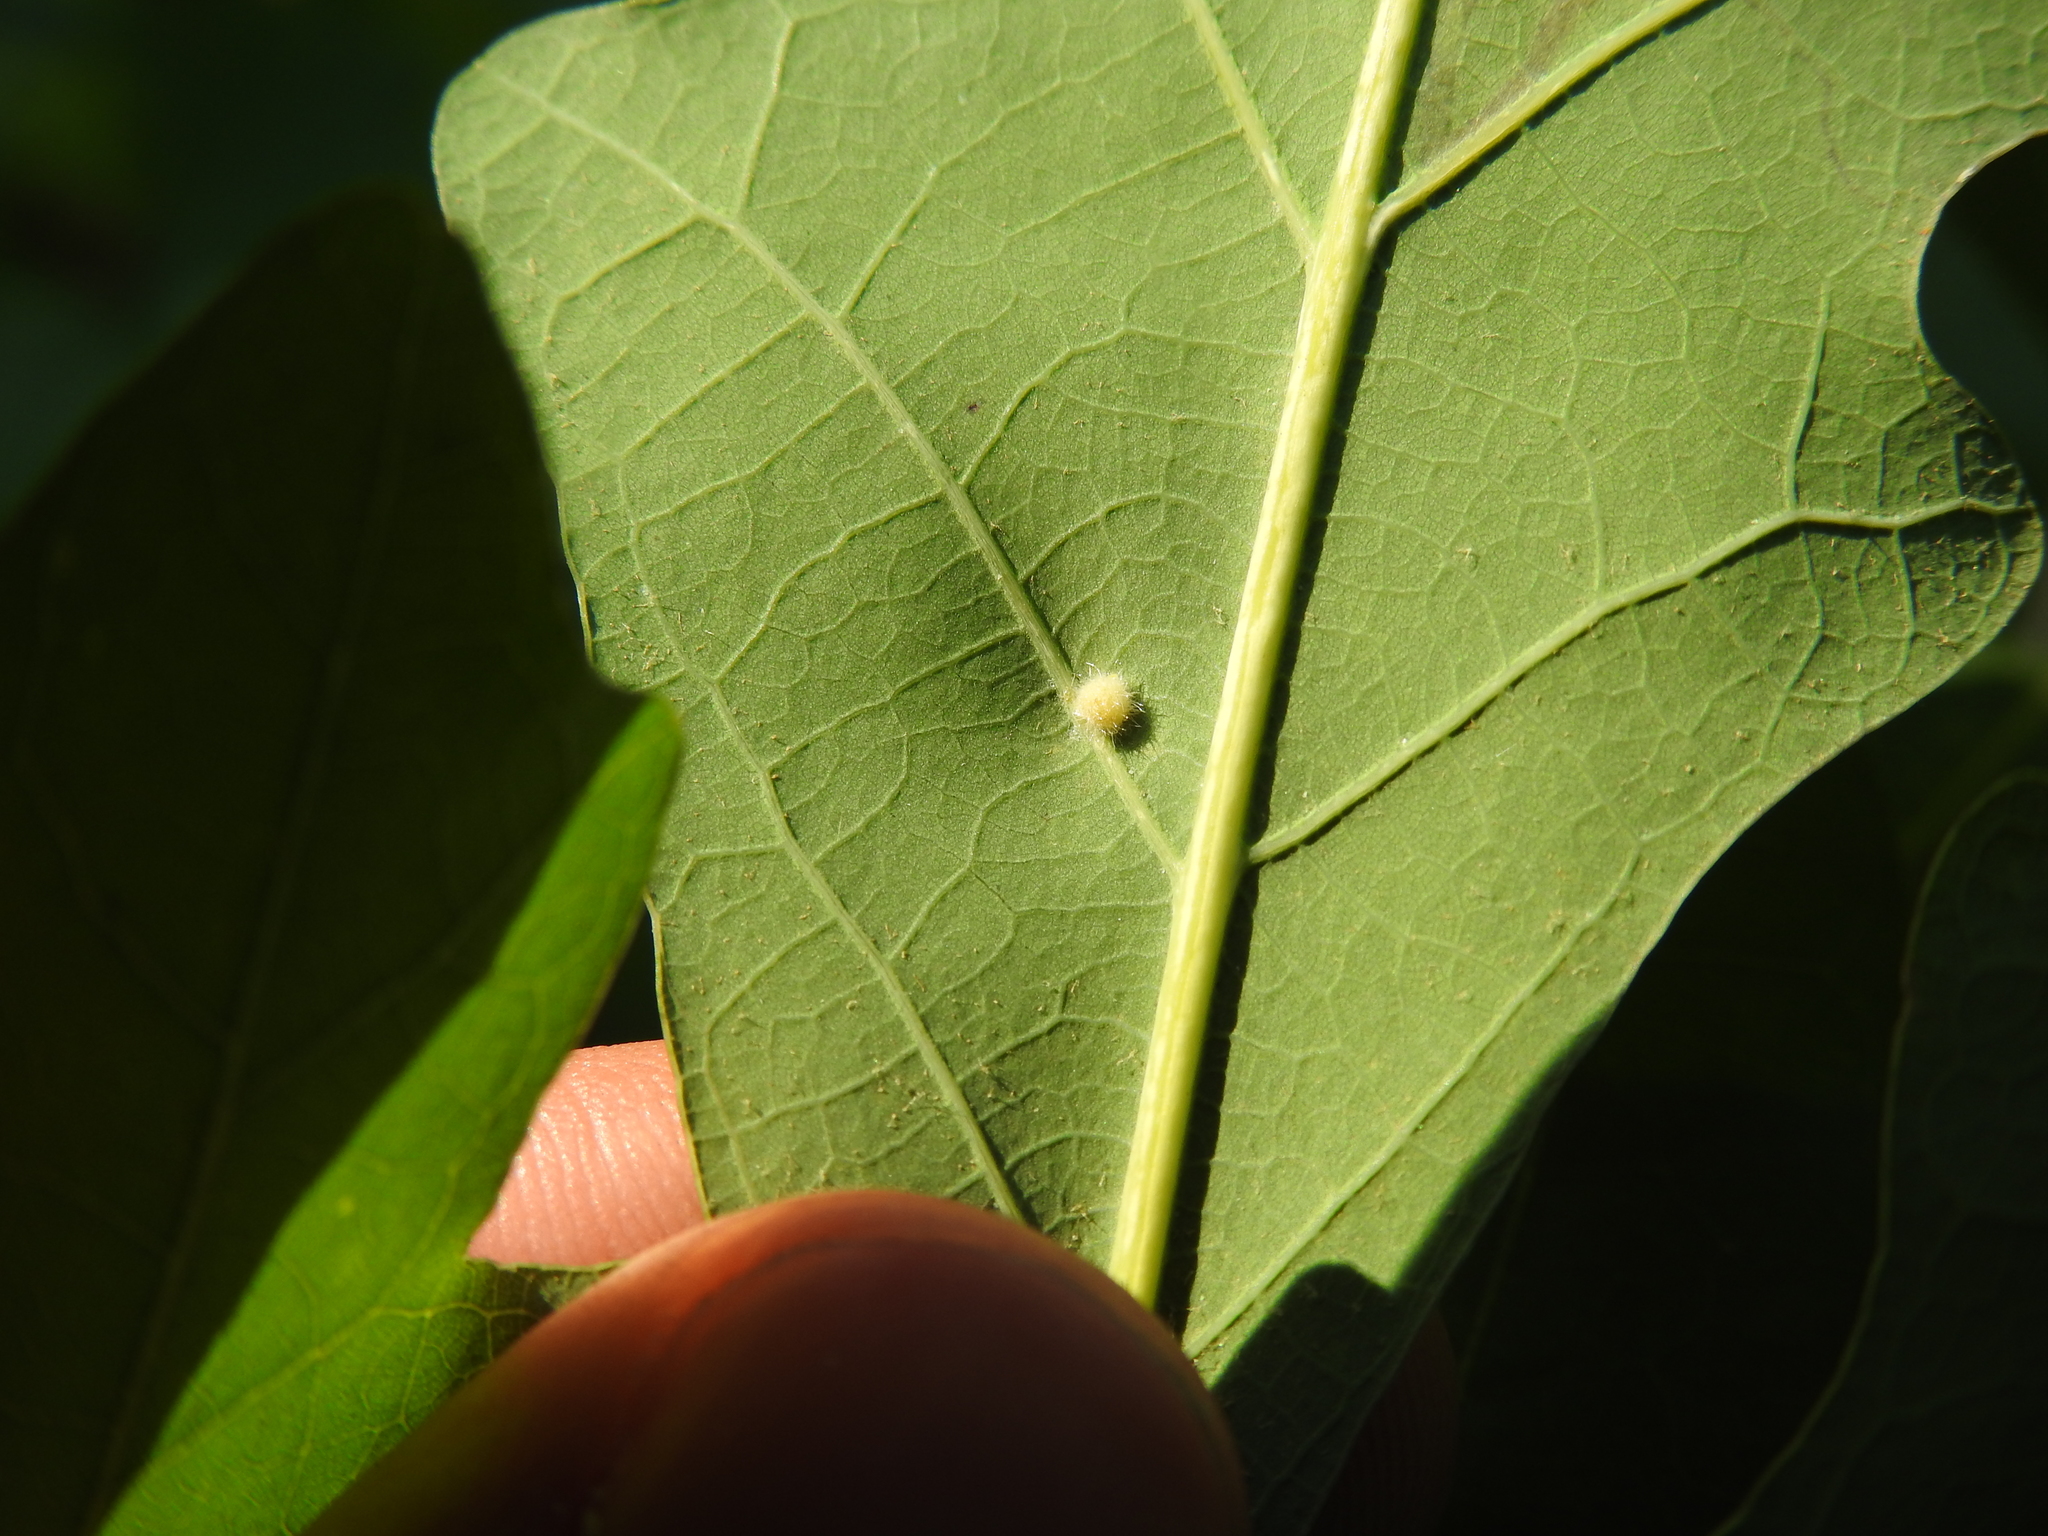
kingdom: Animalia
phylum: Arthropoda
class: Insecta
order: Hymenoptera
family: Cynipidae
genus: Philonix
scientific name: Philonix fulvicollis
